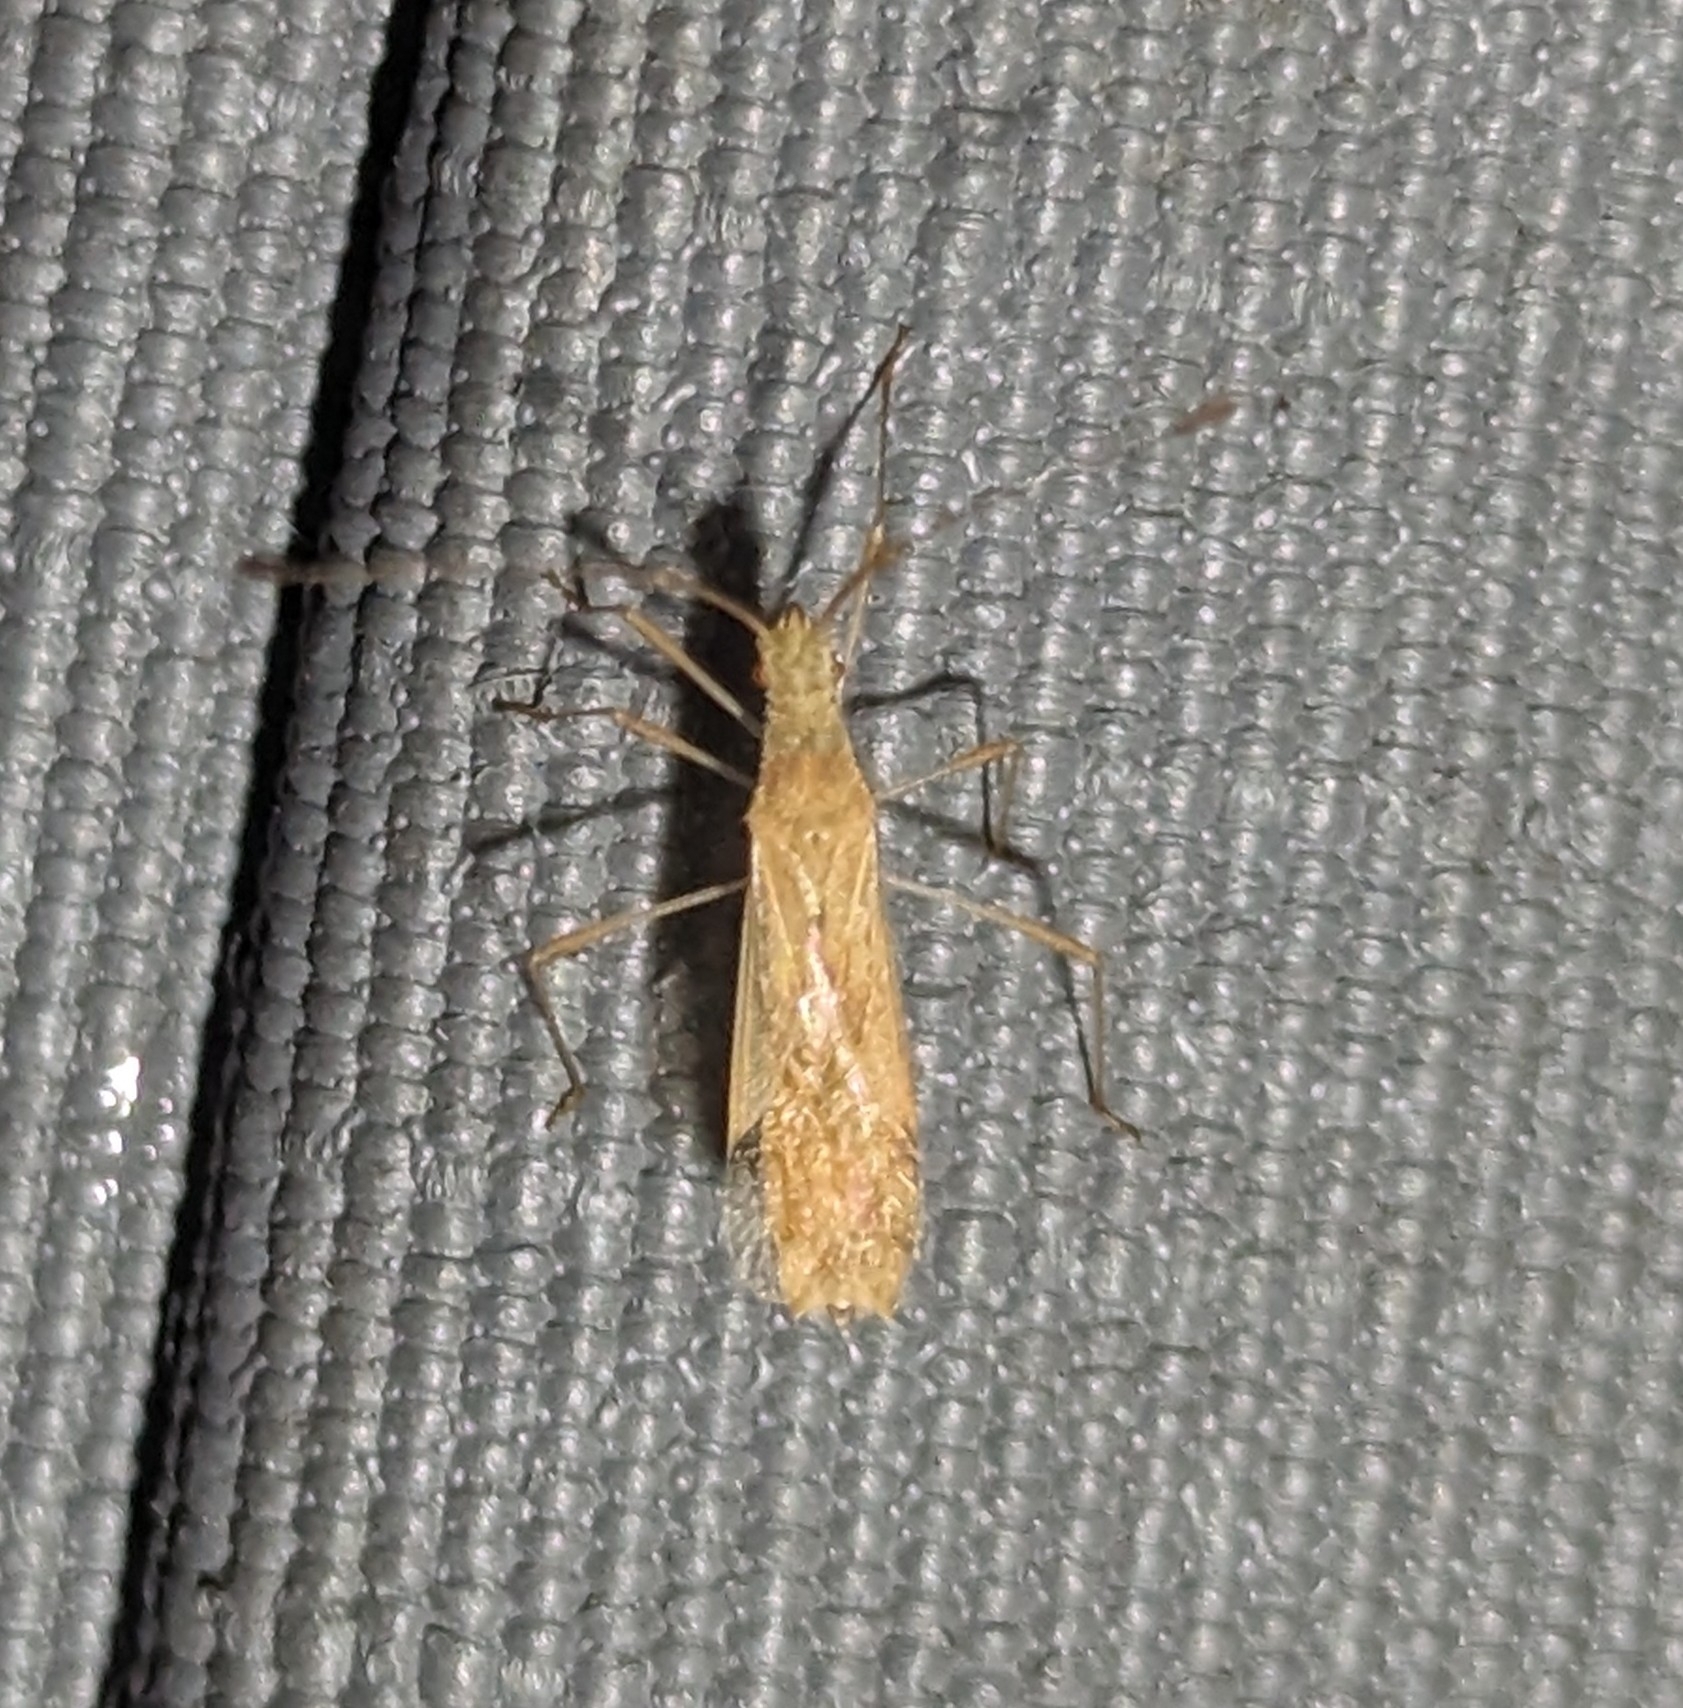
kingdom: Animalia
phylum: Arthropoda
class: Insecta
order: Hemiptera
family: Coreidae
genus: Corduba
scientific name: Corduba lurida
